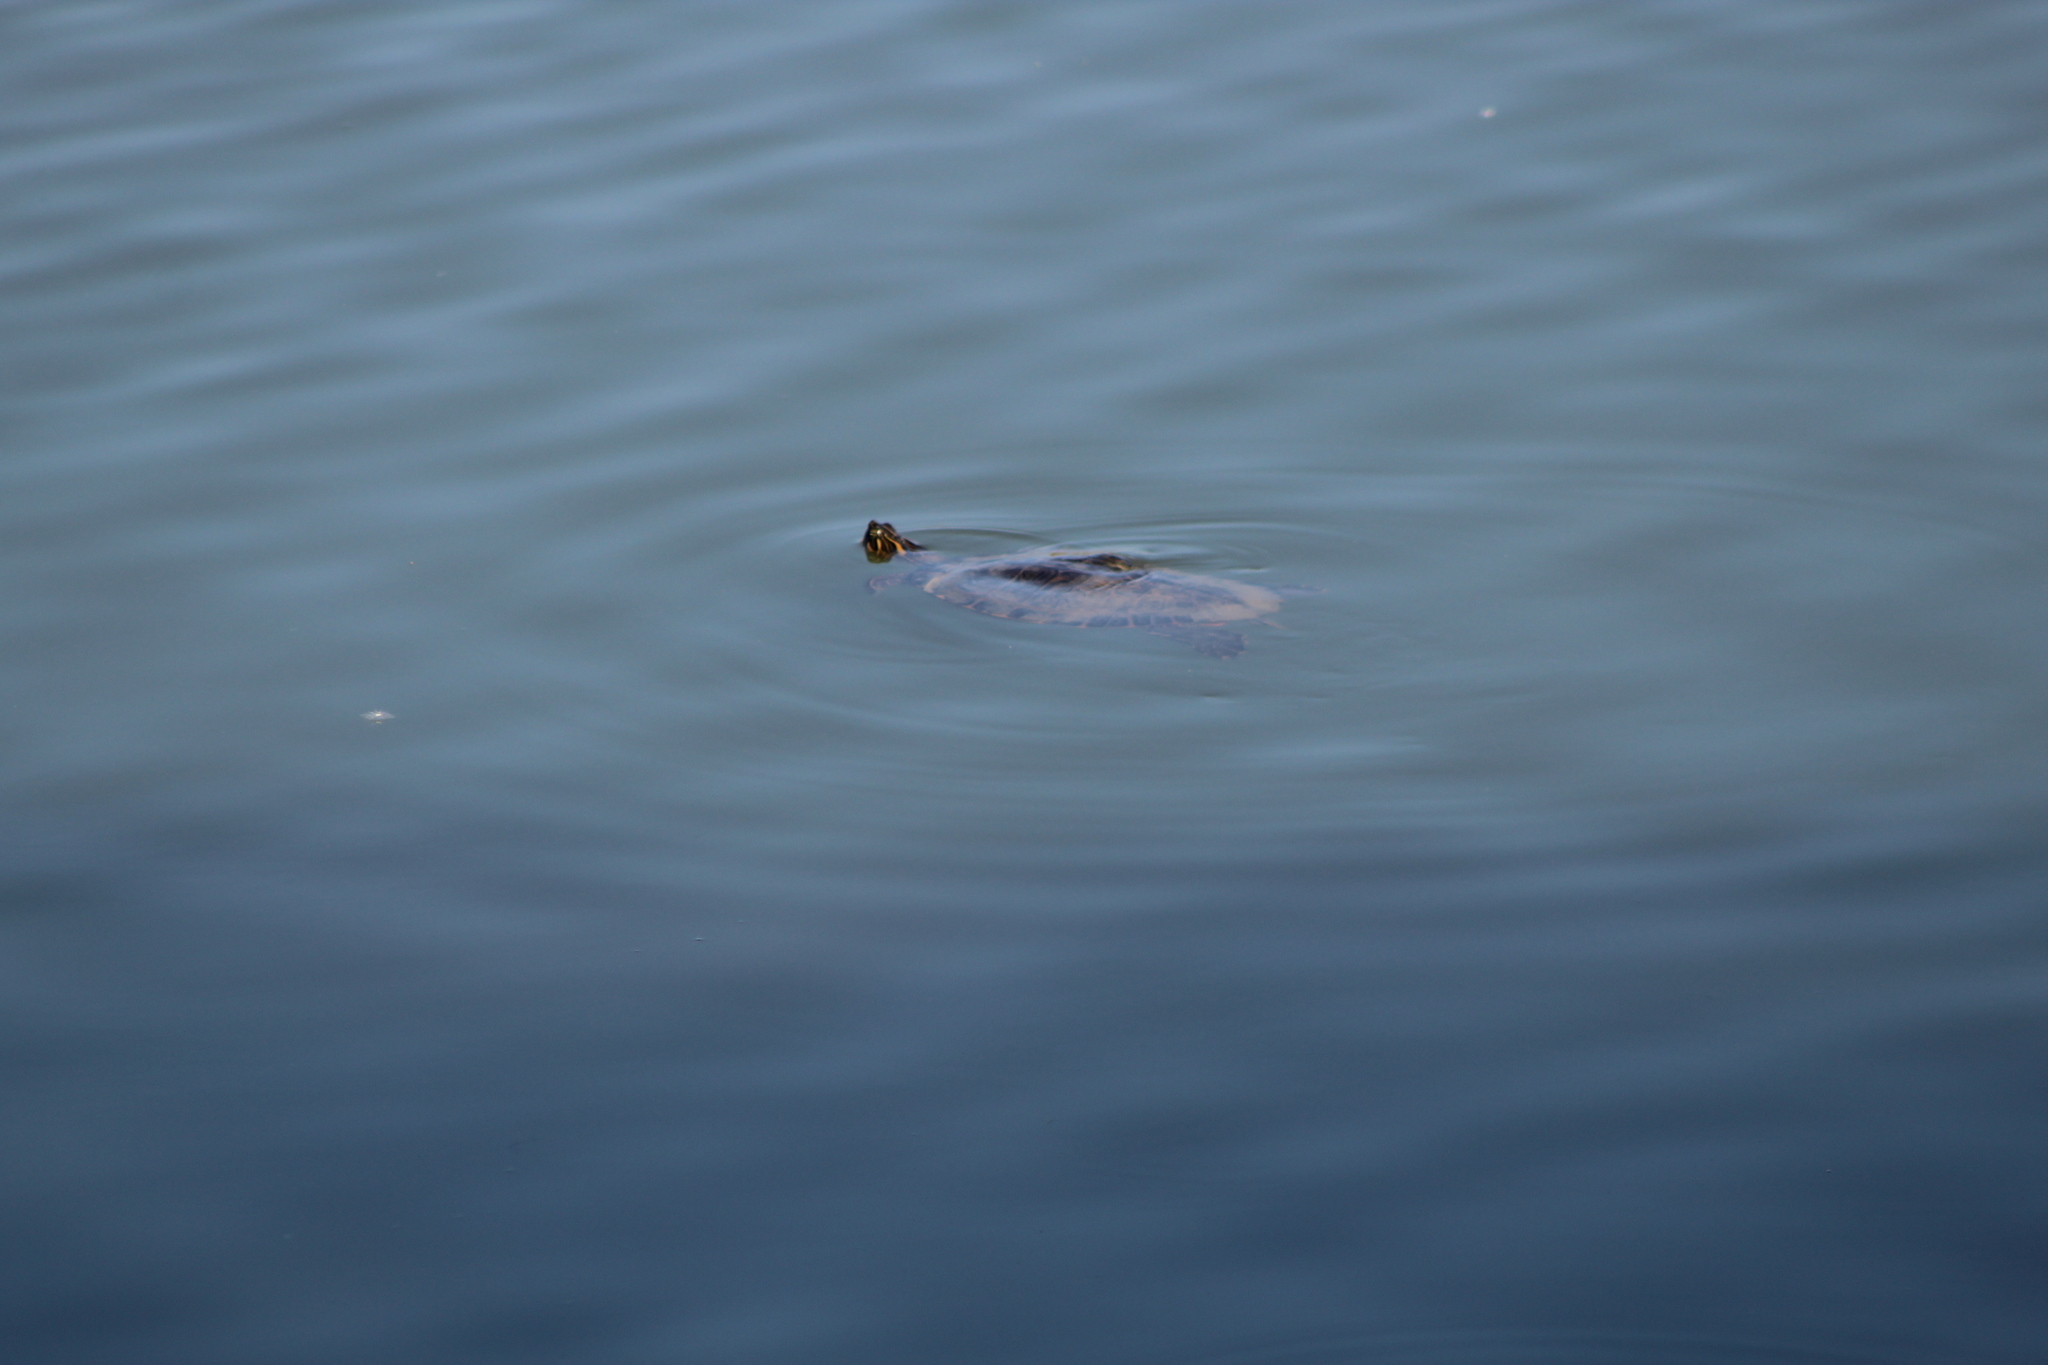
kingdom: Animalia
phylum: Chordata
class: Testudines
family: Emydidae
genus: Pseudemys
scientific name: Pseudemys concinna
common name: Eastern river cooter
